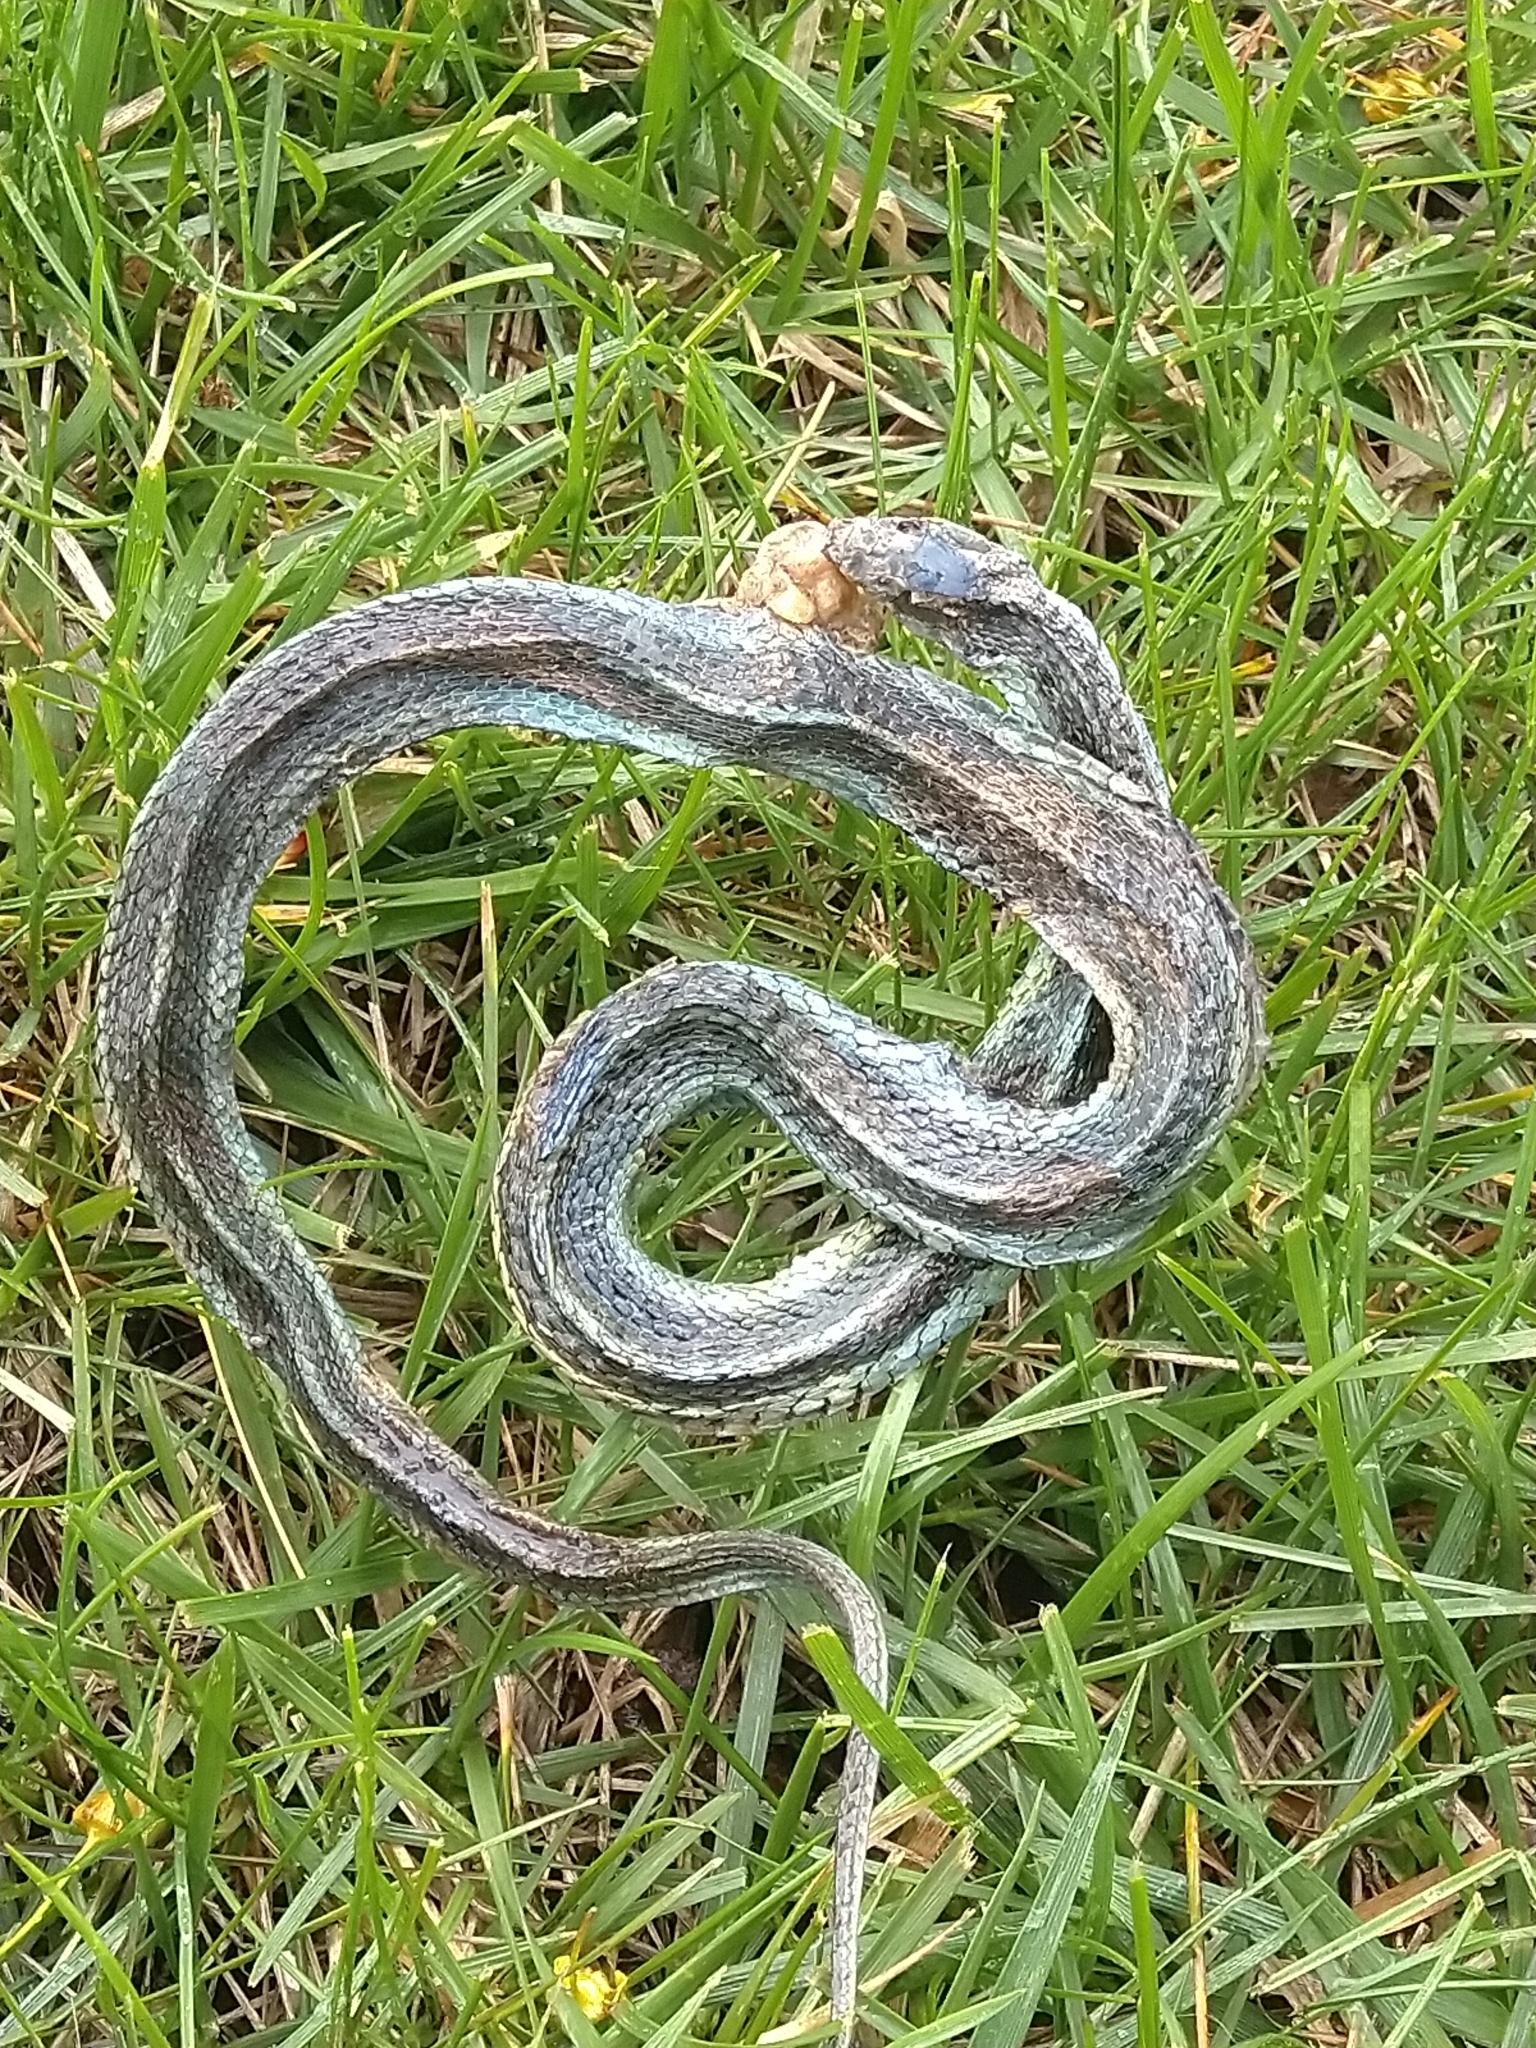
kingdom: Animalia
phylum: Chordata
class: Squamata
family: Colubridae
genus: Thamnophis
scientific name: Thamnophis sirtalis
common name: Common garter snake
